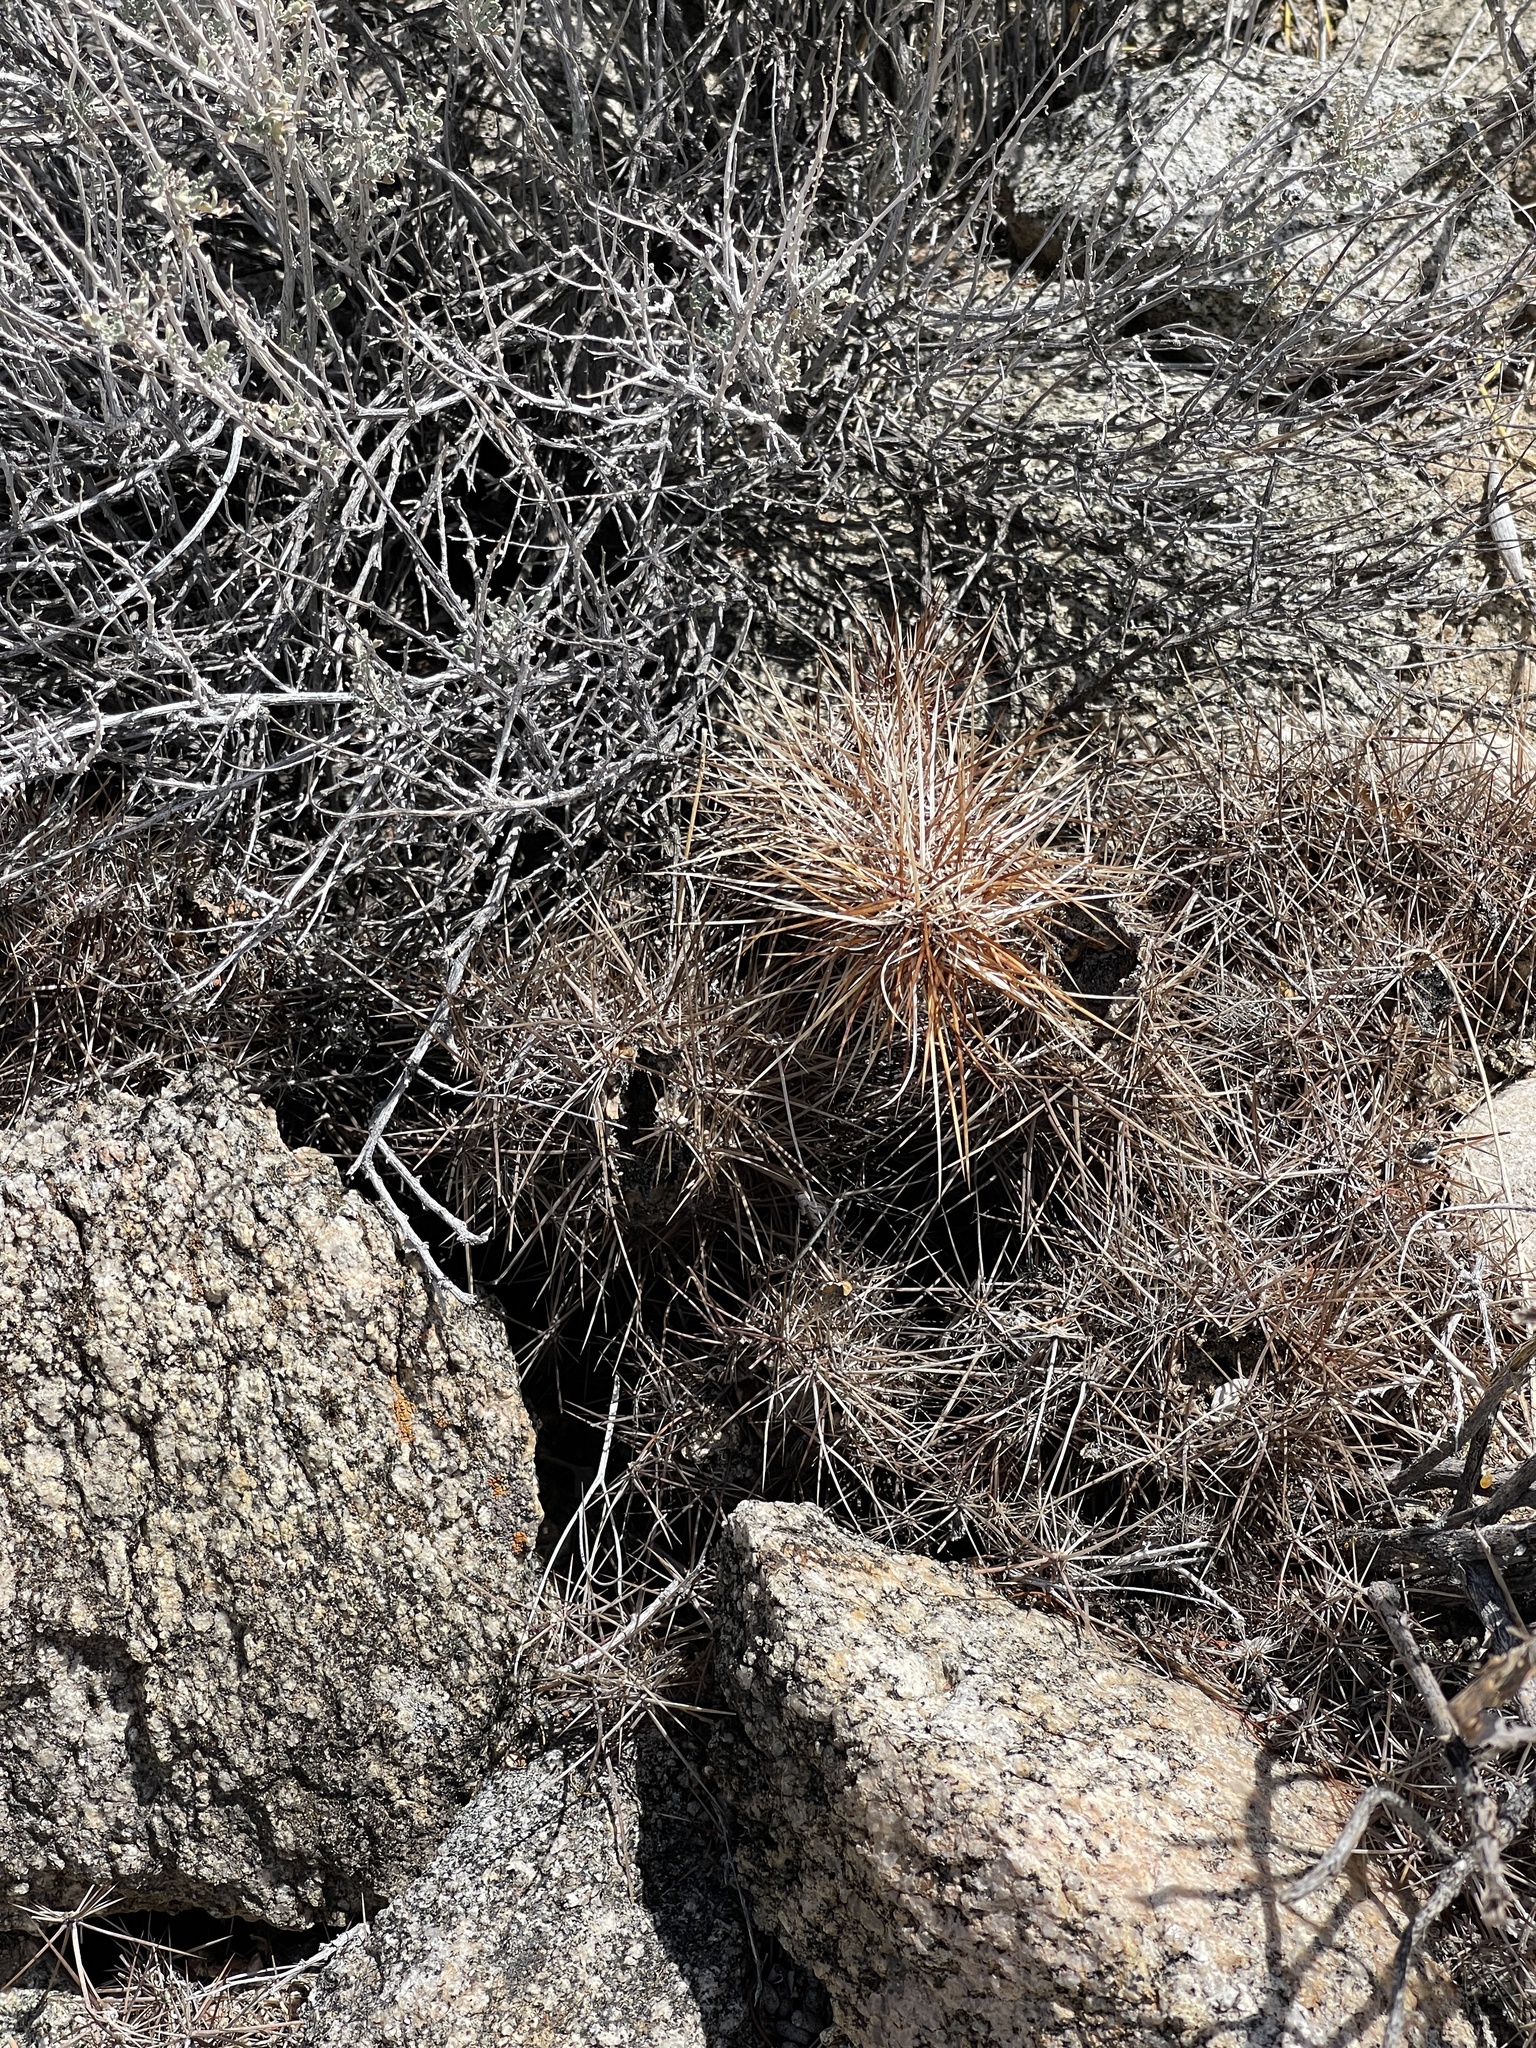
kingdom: Plantae
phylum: Tracheophyta
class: Magnoliopsida
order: Caryophyllales
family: Cactaceae
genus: Echinocereus
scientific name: Echinocereus engelmannii
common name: Engelmann's hedgehog cactus
